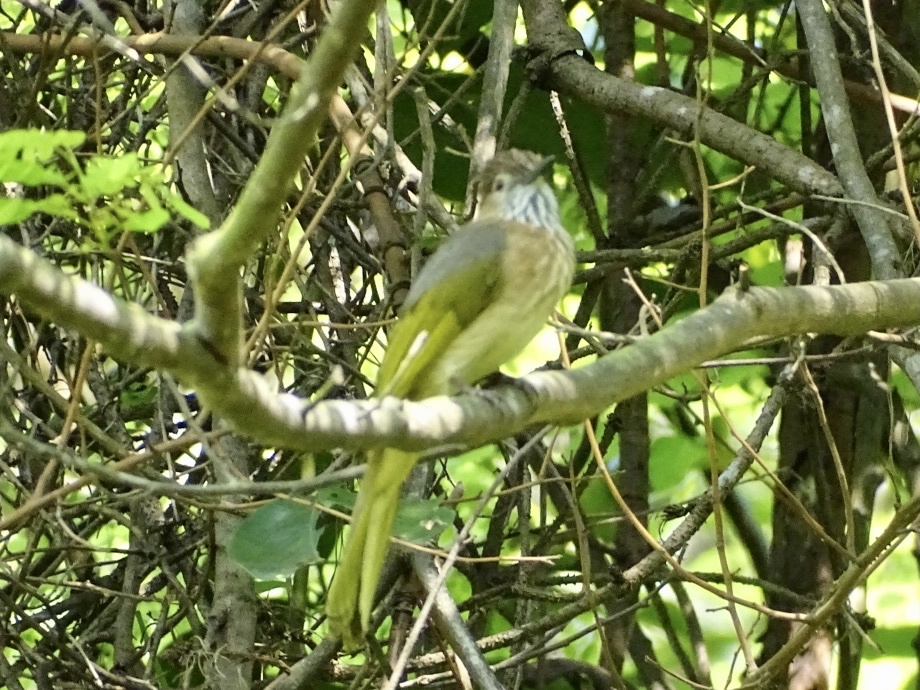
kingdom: Animalia
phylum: Chordata
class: Aves
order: Passeriformes
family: Pycnonotidae
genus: Ixos
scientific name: Ixos mcclellandii
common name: Mountain bulbul
